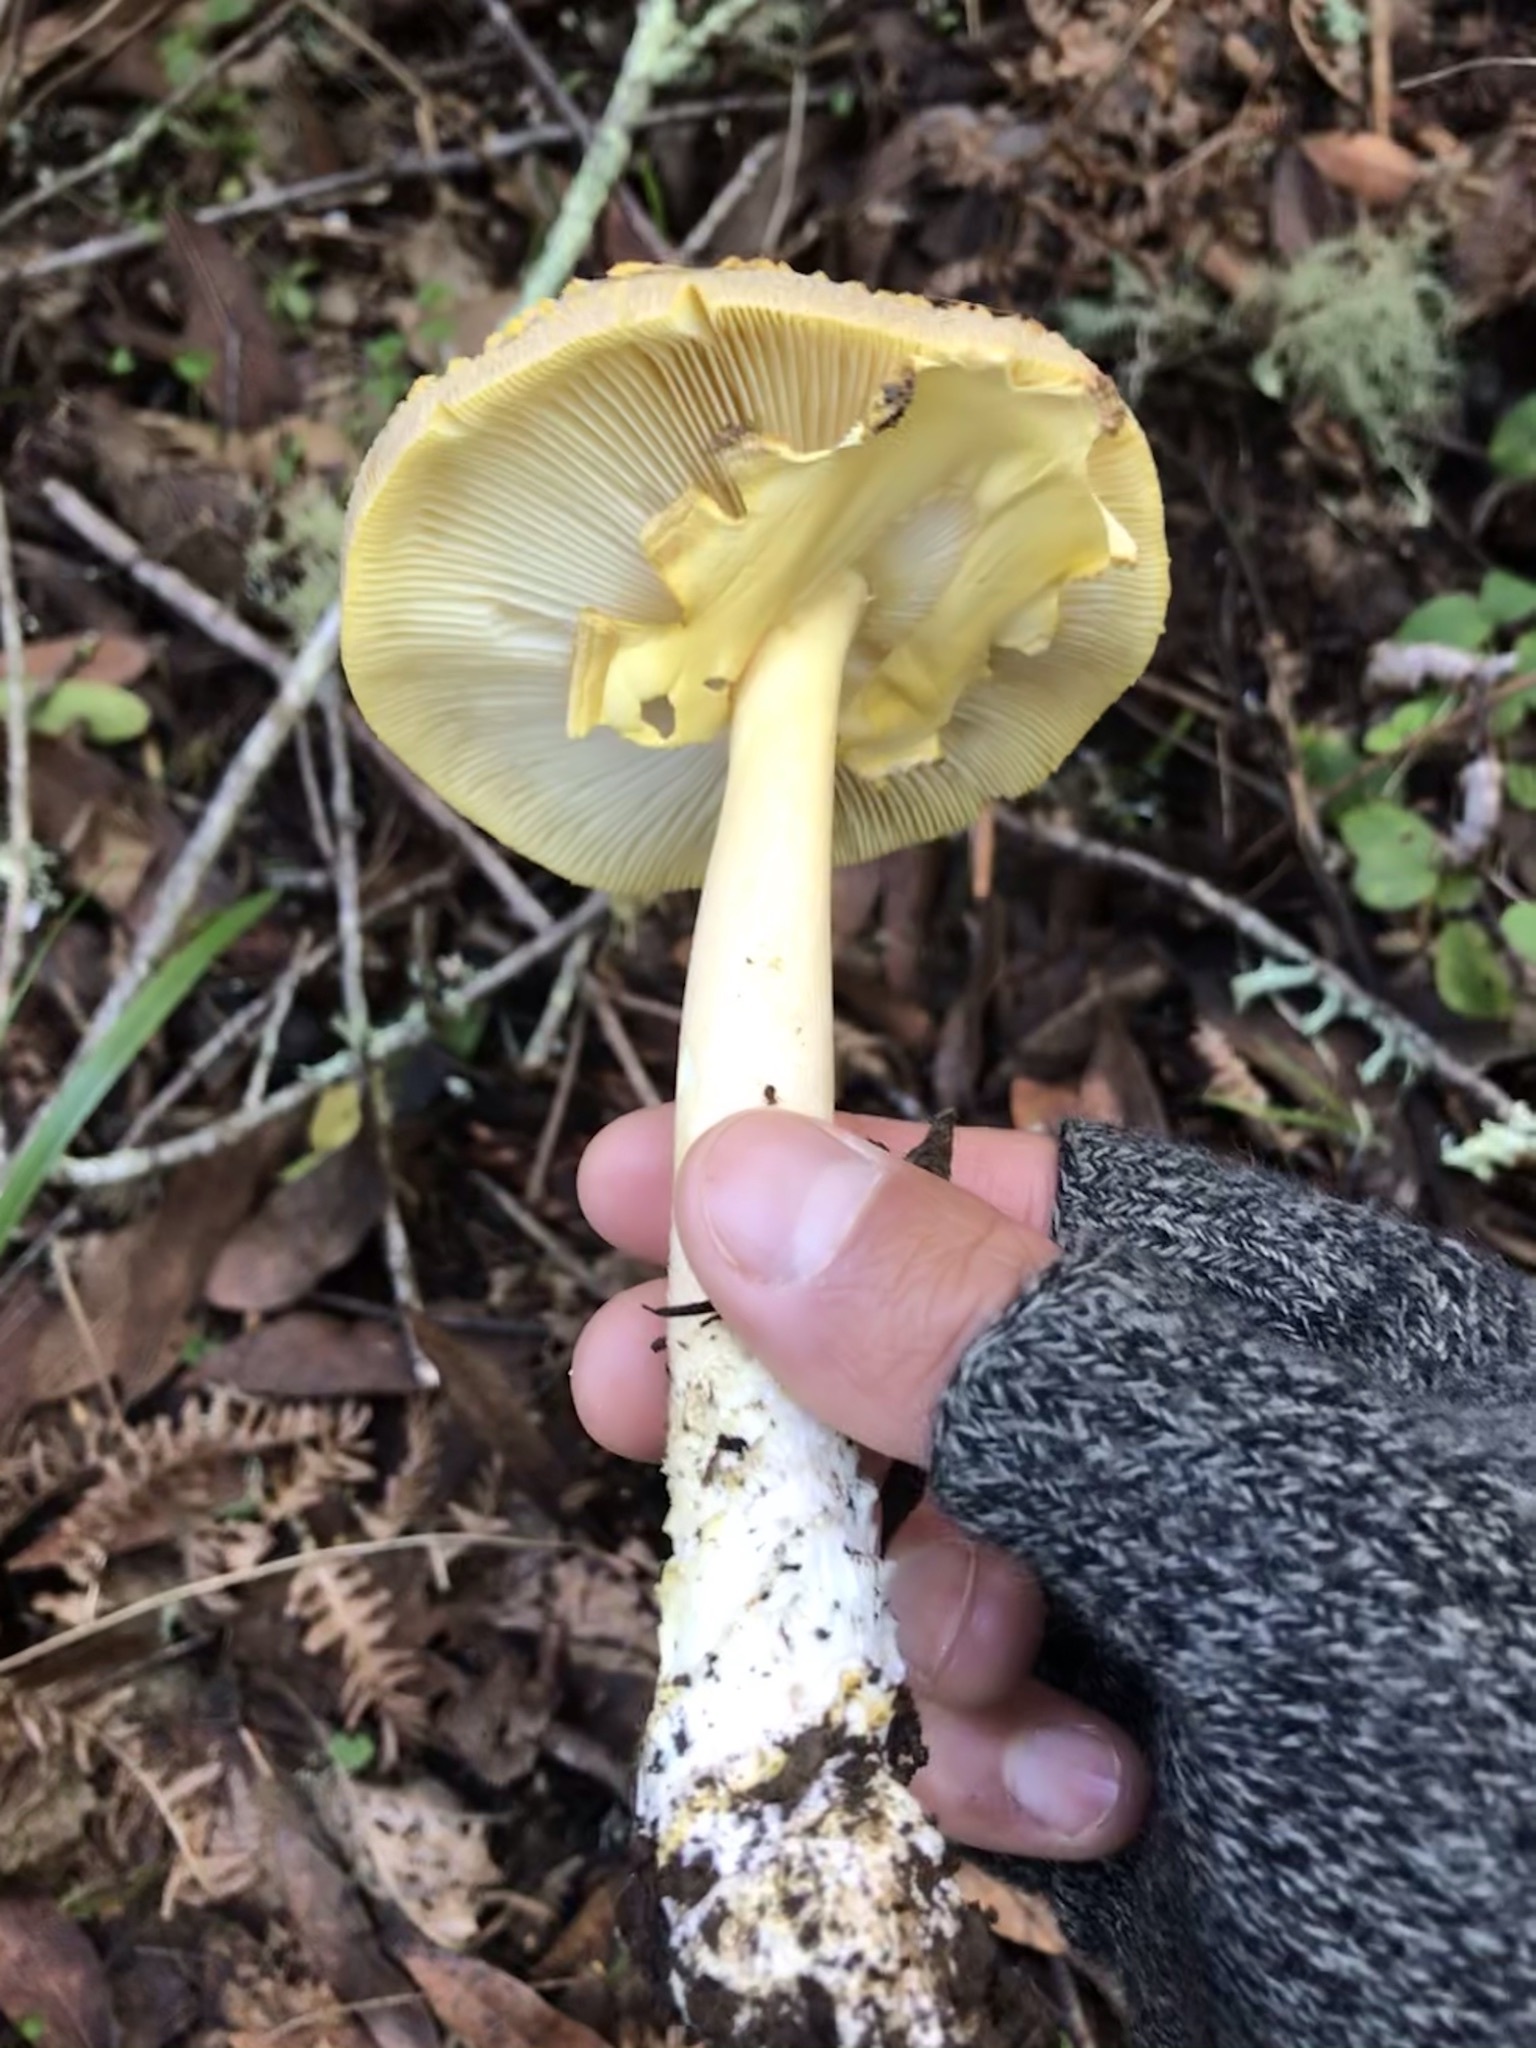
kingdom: Fungi
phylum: Basidiomycota
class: Agaricomycetes
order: Agaricales
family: Amanitaceae
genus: Amanita
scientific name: Amanita augusta
